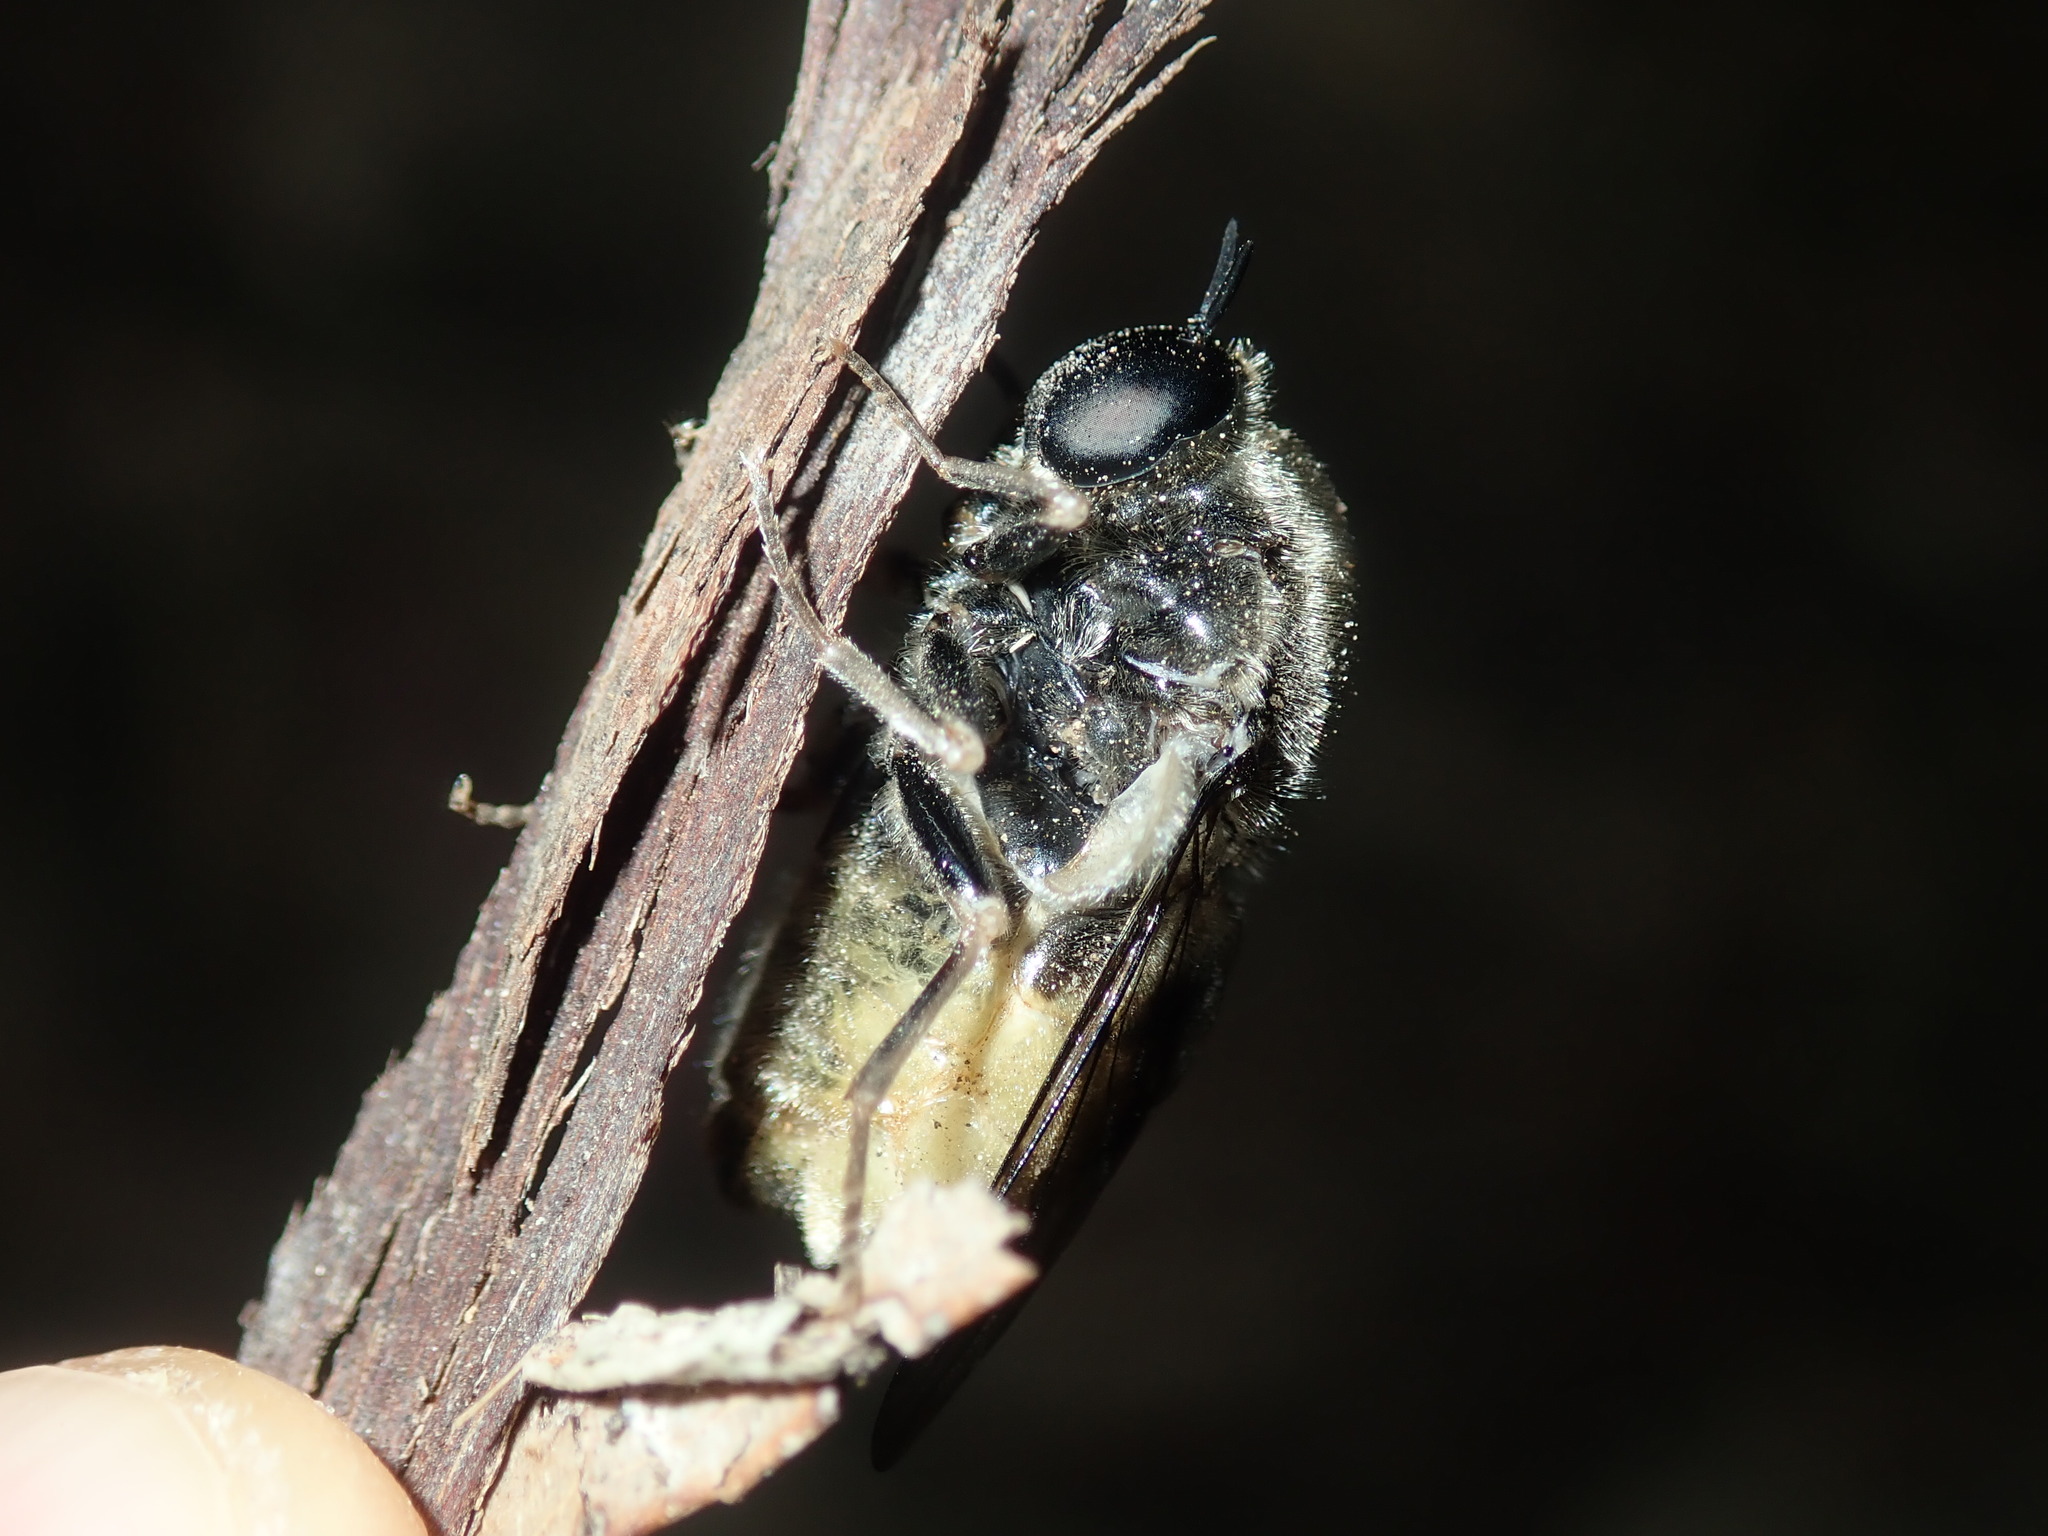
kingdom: Animalia
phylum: Arthropoda
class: Insecta
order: Diptera
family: Acroceridae
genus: Panops
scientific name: Panops baudini
